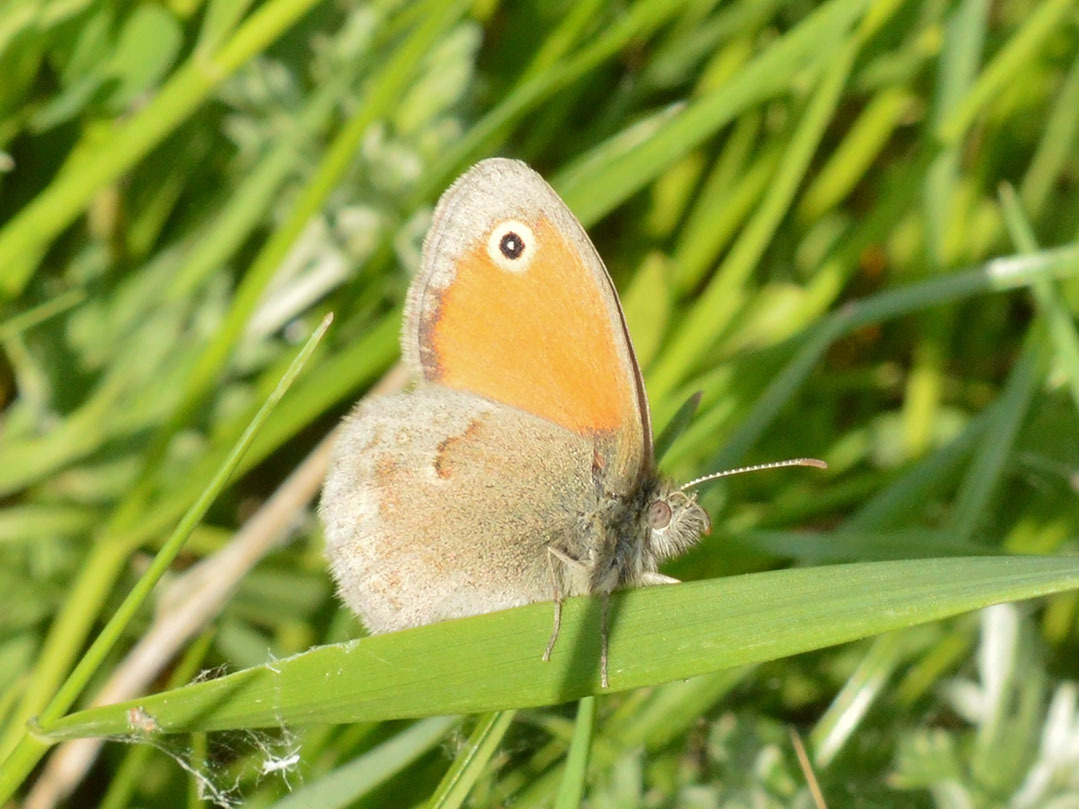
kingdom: Animalia
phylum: Arthropoda
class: Insecta
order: Lepidoptera
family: Nymphalidae
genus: Coenonympha
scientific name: Coenonympha pamphilus
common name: Small heath
